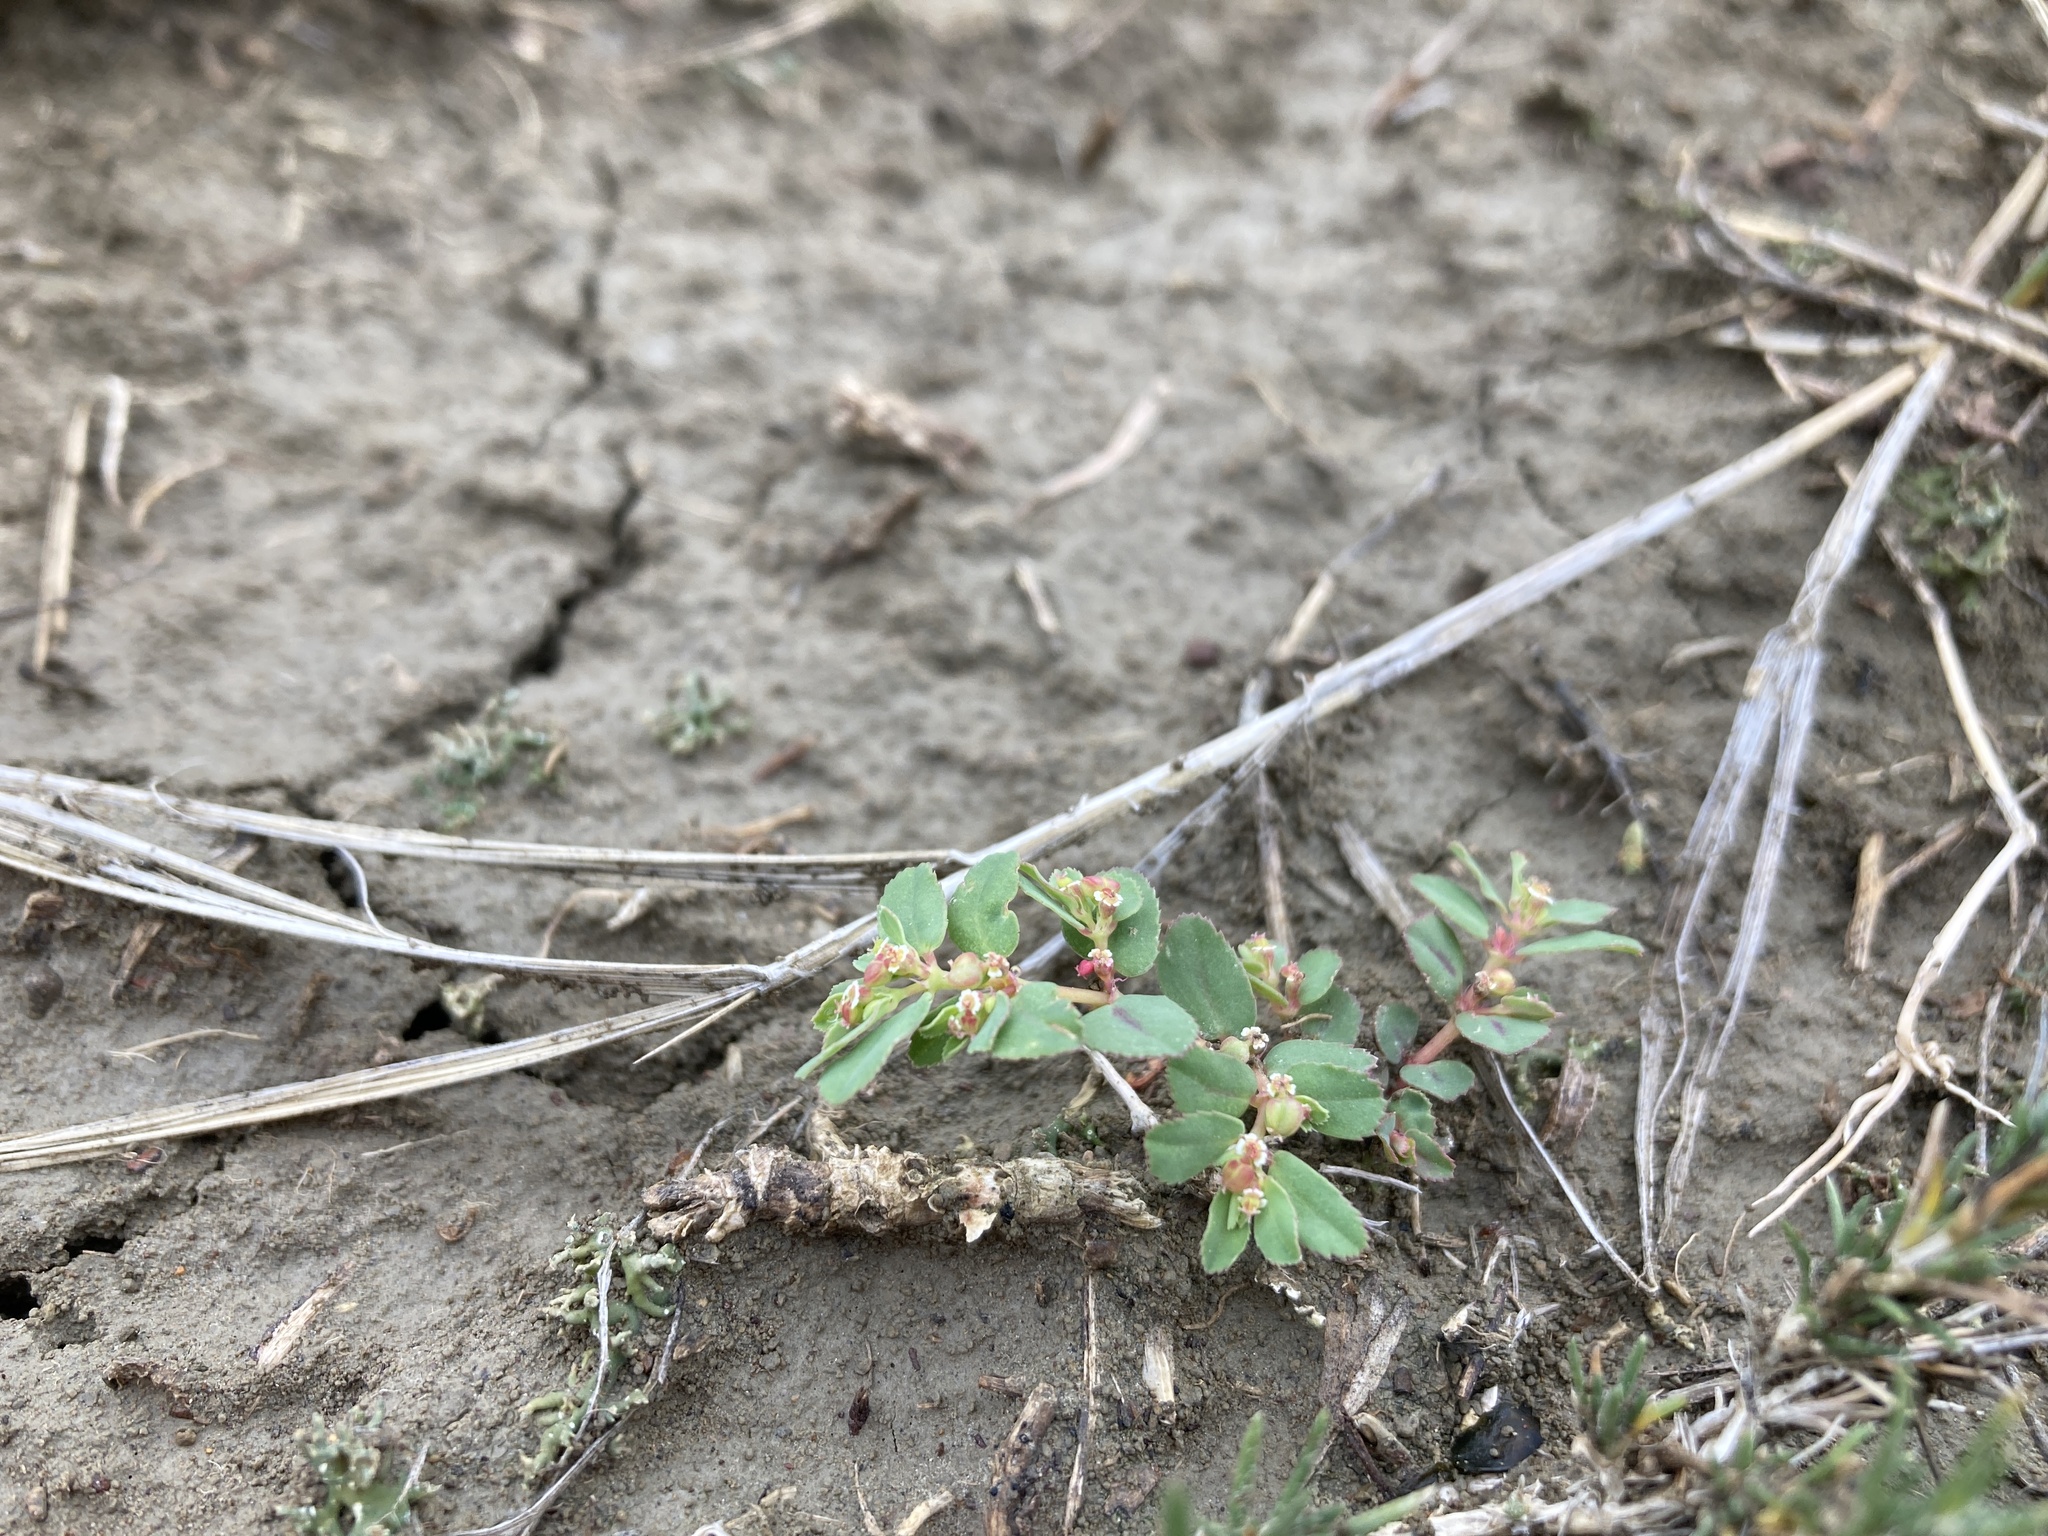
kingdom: Plantae
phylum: Tracheophyta
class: Magnoliopsida
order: Malpighiales
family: Euphorbiaceae
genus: Euphorbia
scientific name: Euphorbia serpillifolia
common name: Thyme-leaf spurge
